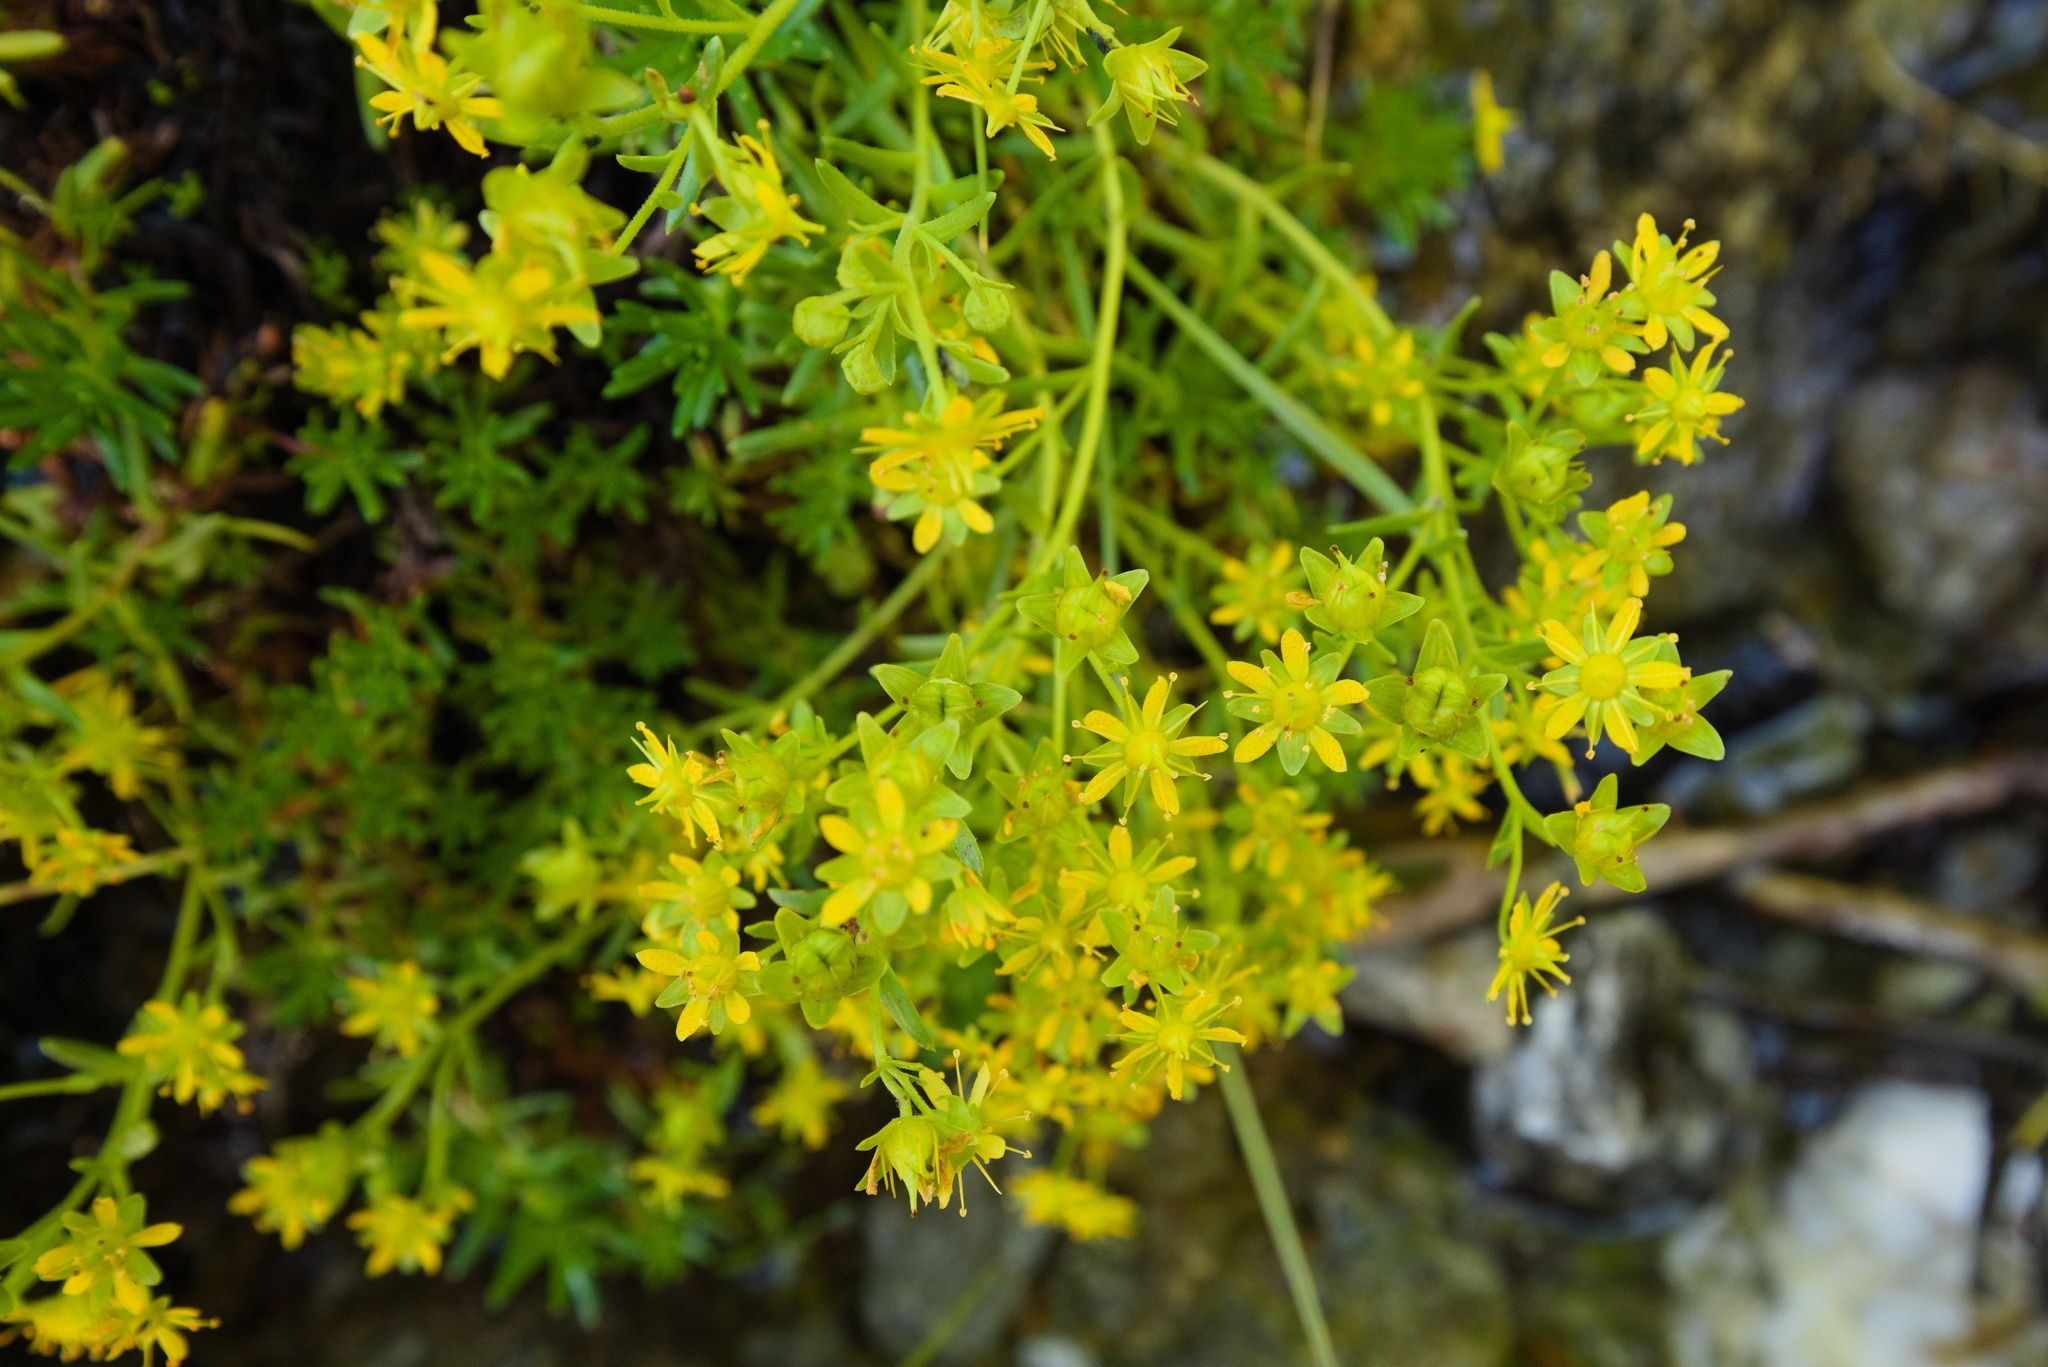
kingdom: Plantae
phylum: Tracheophyta
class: Magnoliopsida
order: Saxifragales
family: Saxifragaceae
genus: Saxifraga
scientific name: Saxifraga aizoides
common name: Yellow mountain saxifrage
